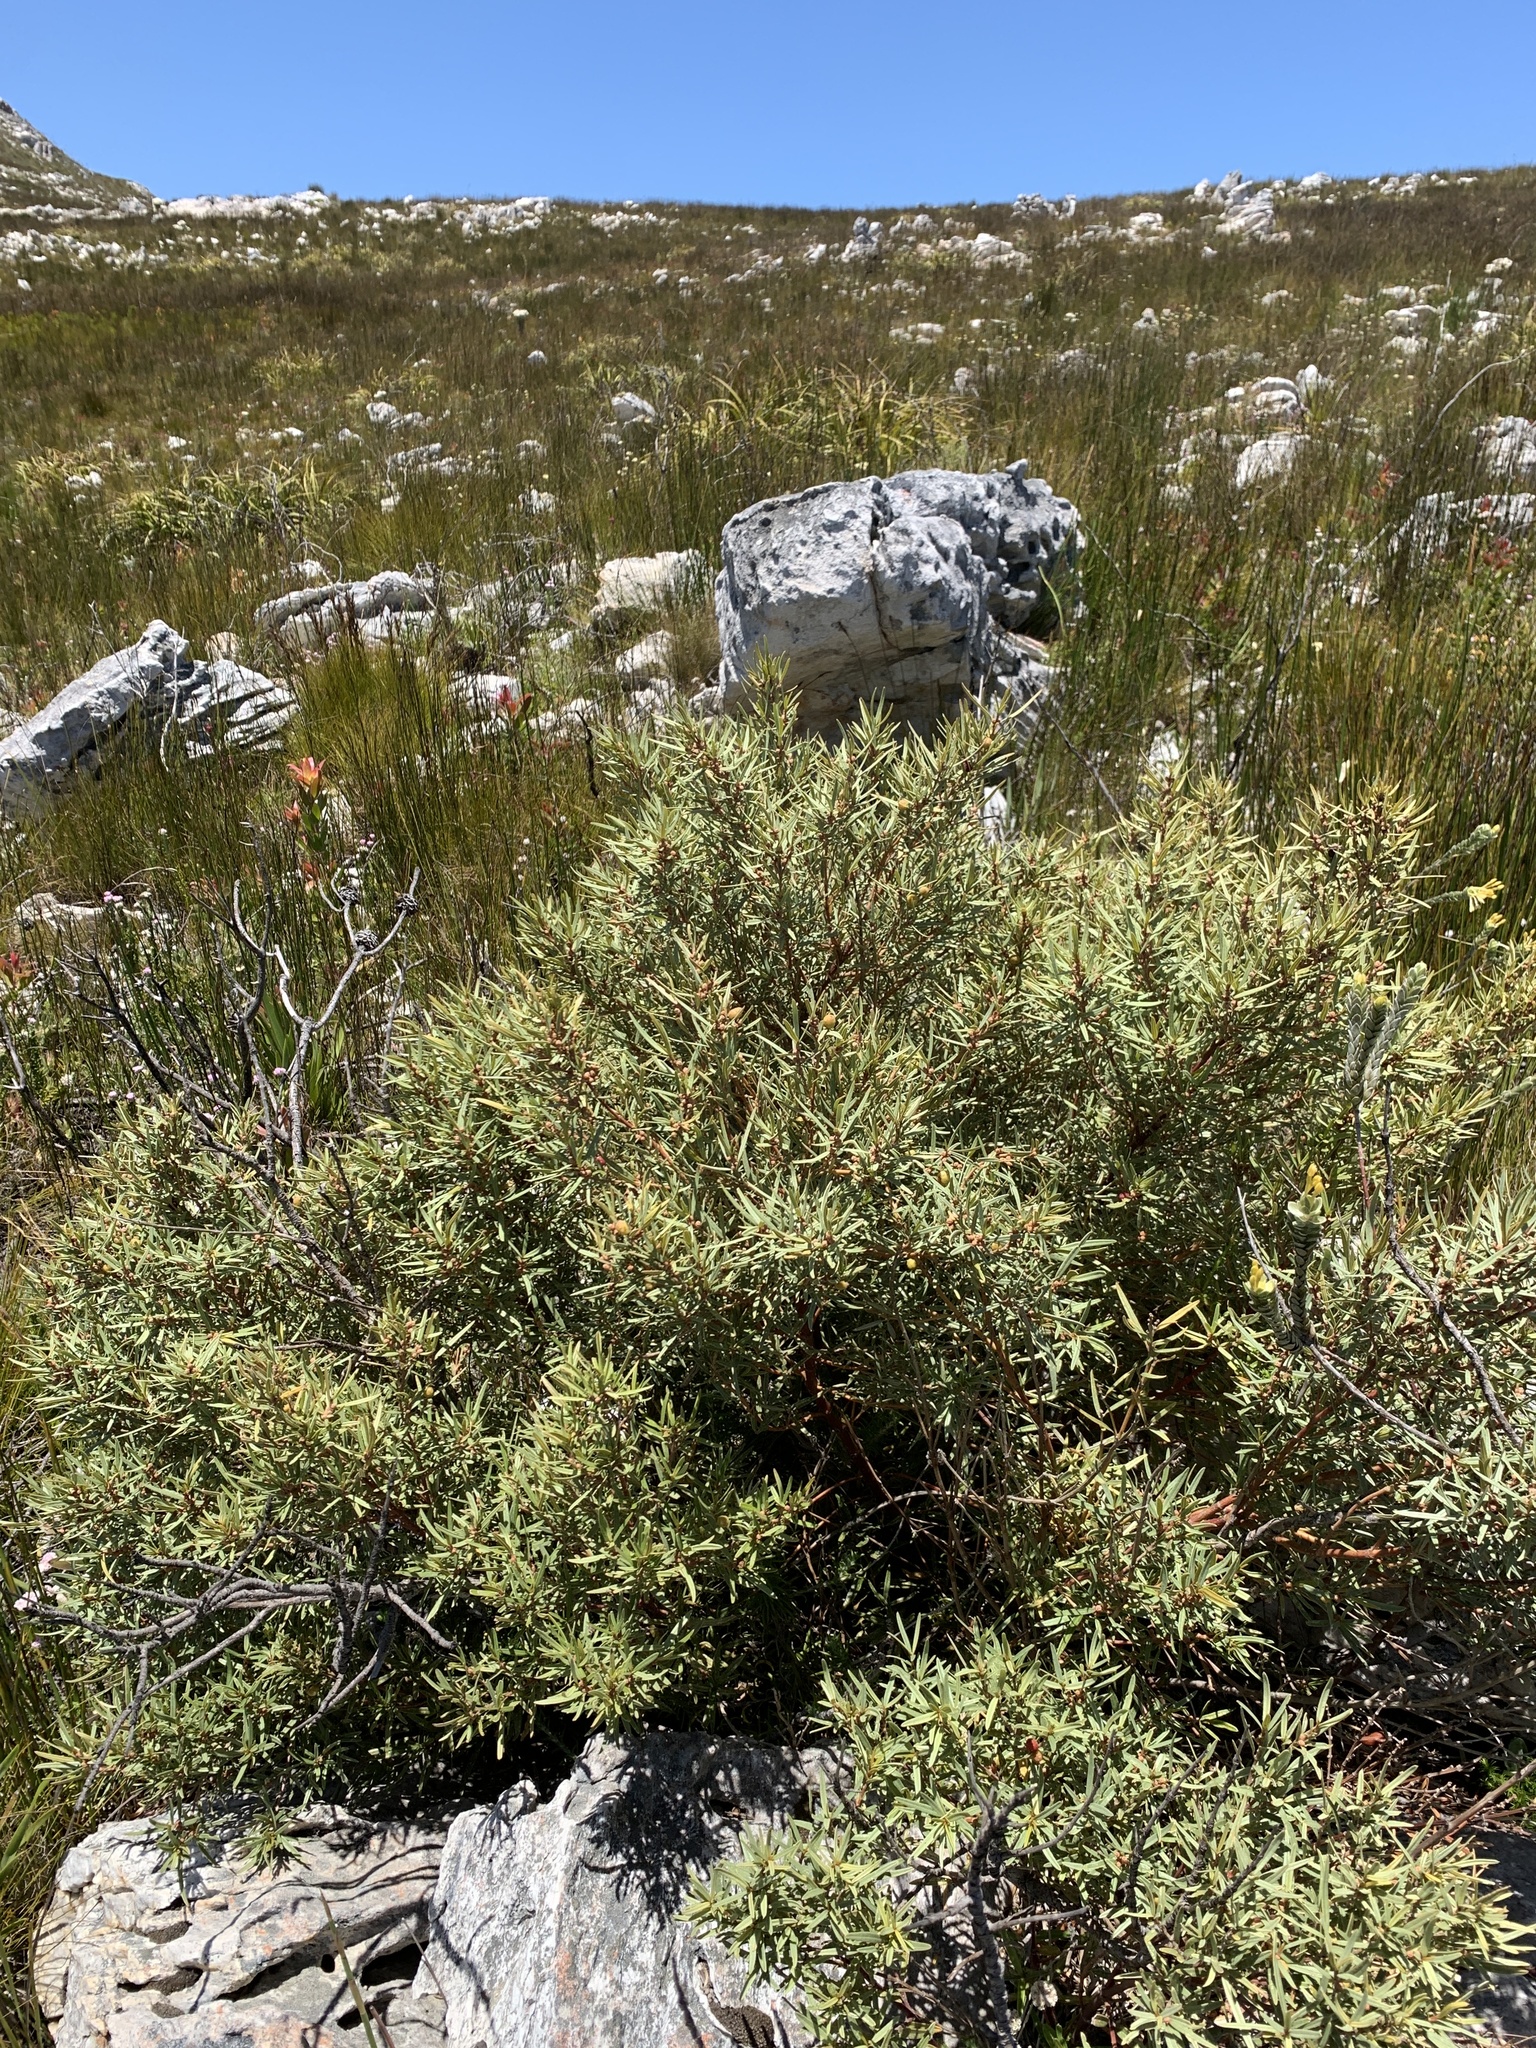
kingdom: Plantae
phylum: Tracheophyta
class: Magnoliopsida
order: Cornales
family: Grubbiaceae
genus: Grubbia
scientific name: Grubbia tomentosa
